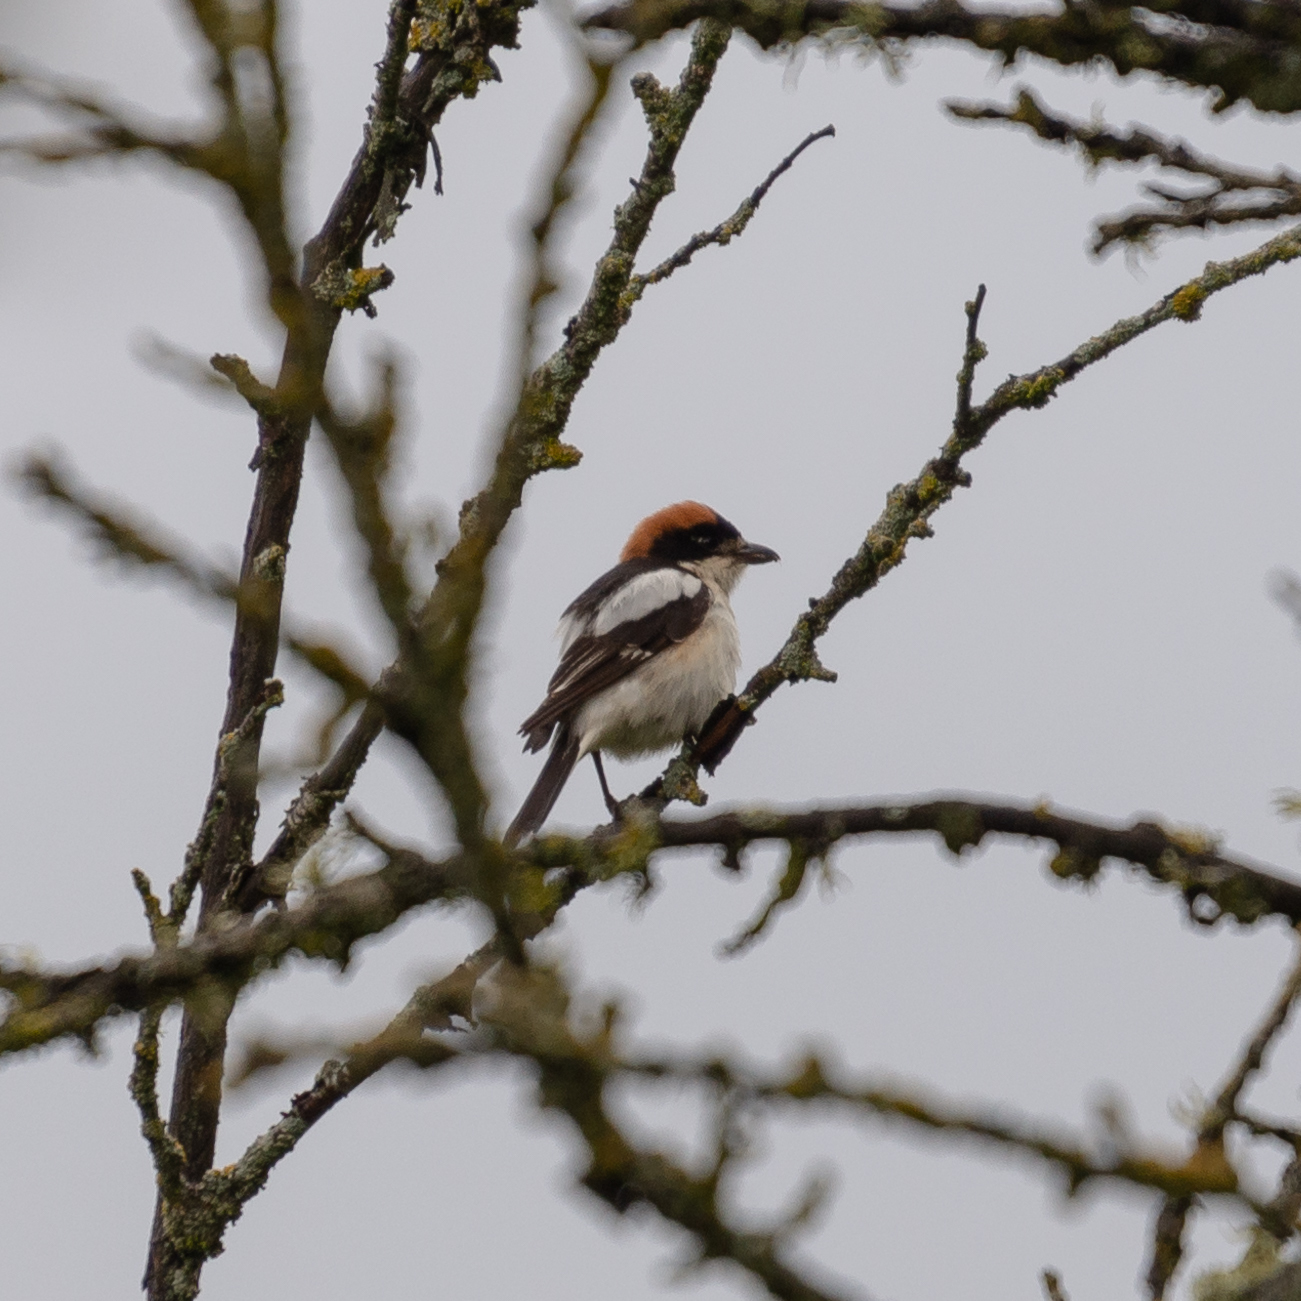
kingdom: Animalia
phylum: Chordata
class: Aves
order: Passeriformes
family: Laniidae
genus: Lanius
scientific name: Lanius senator
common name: Woodchat shrike
